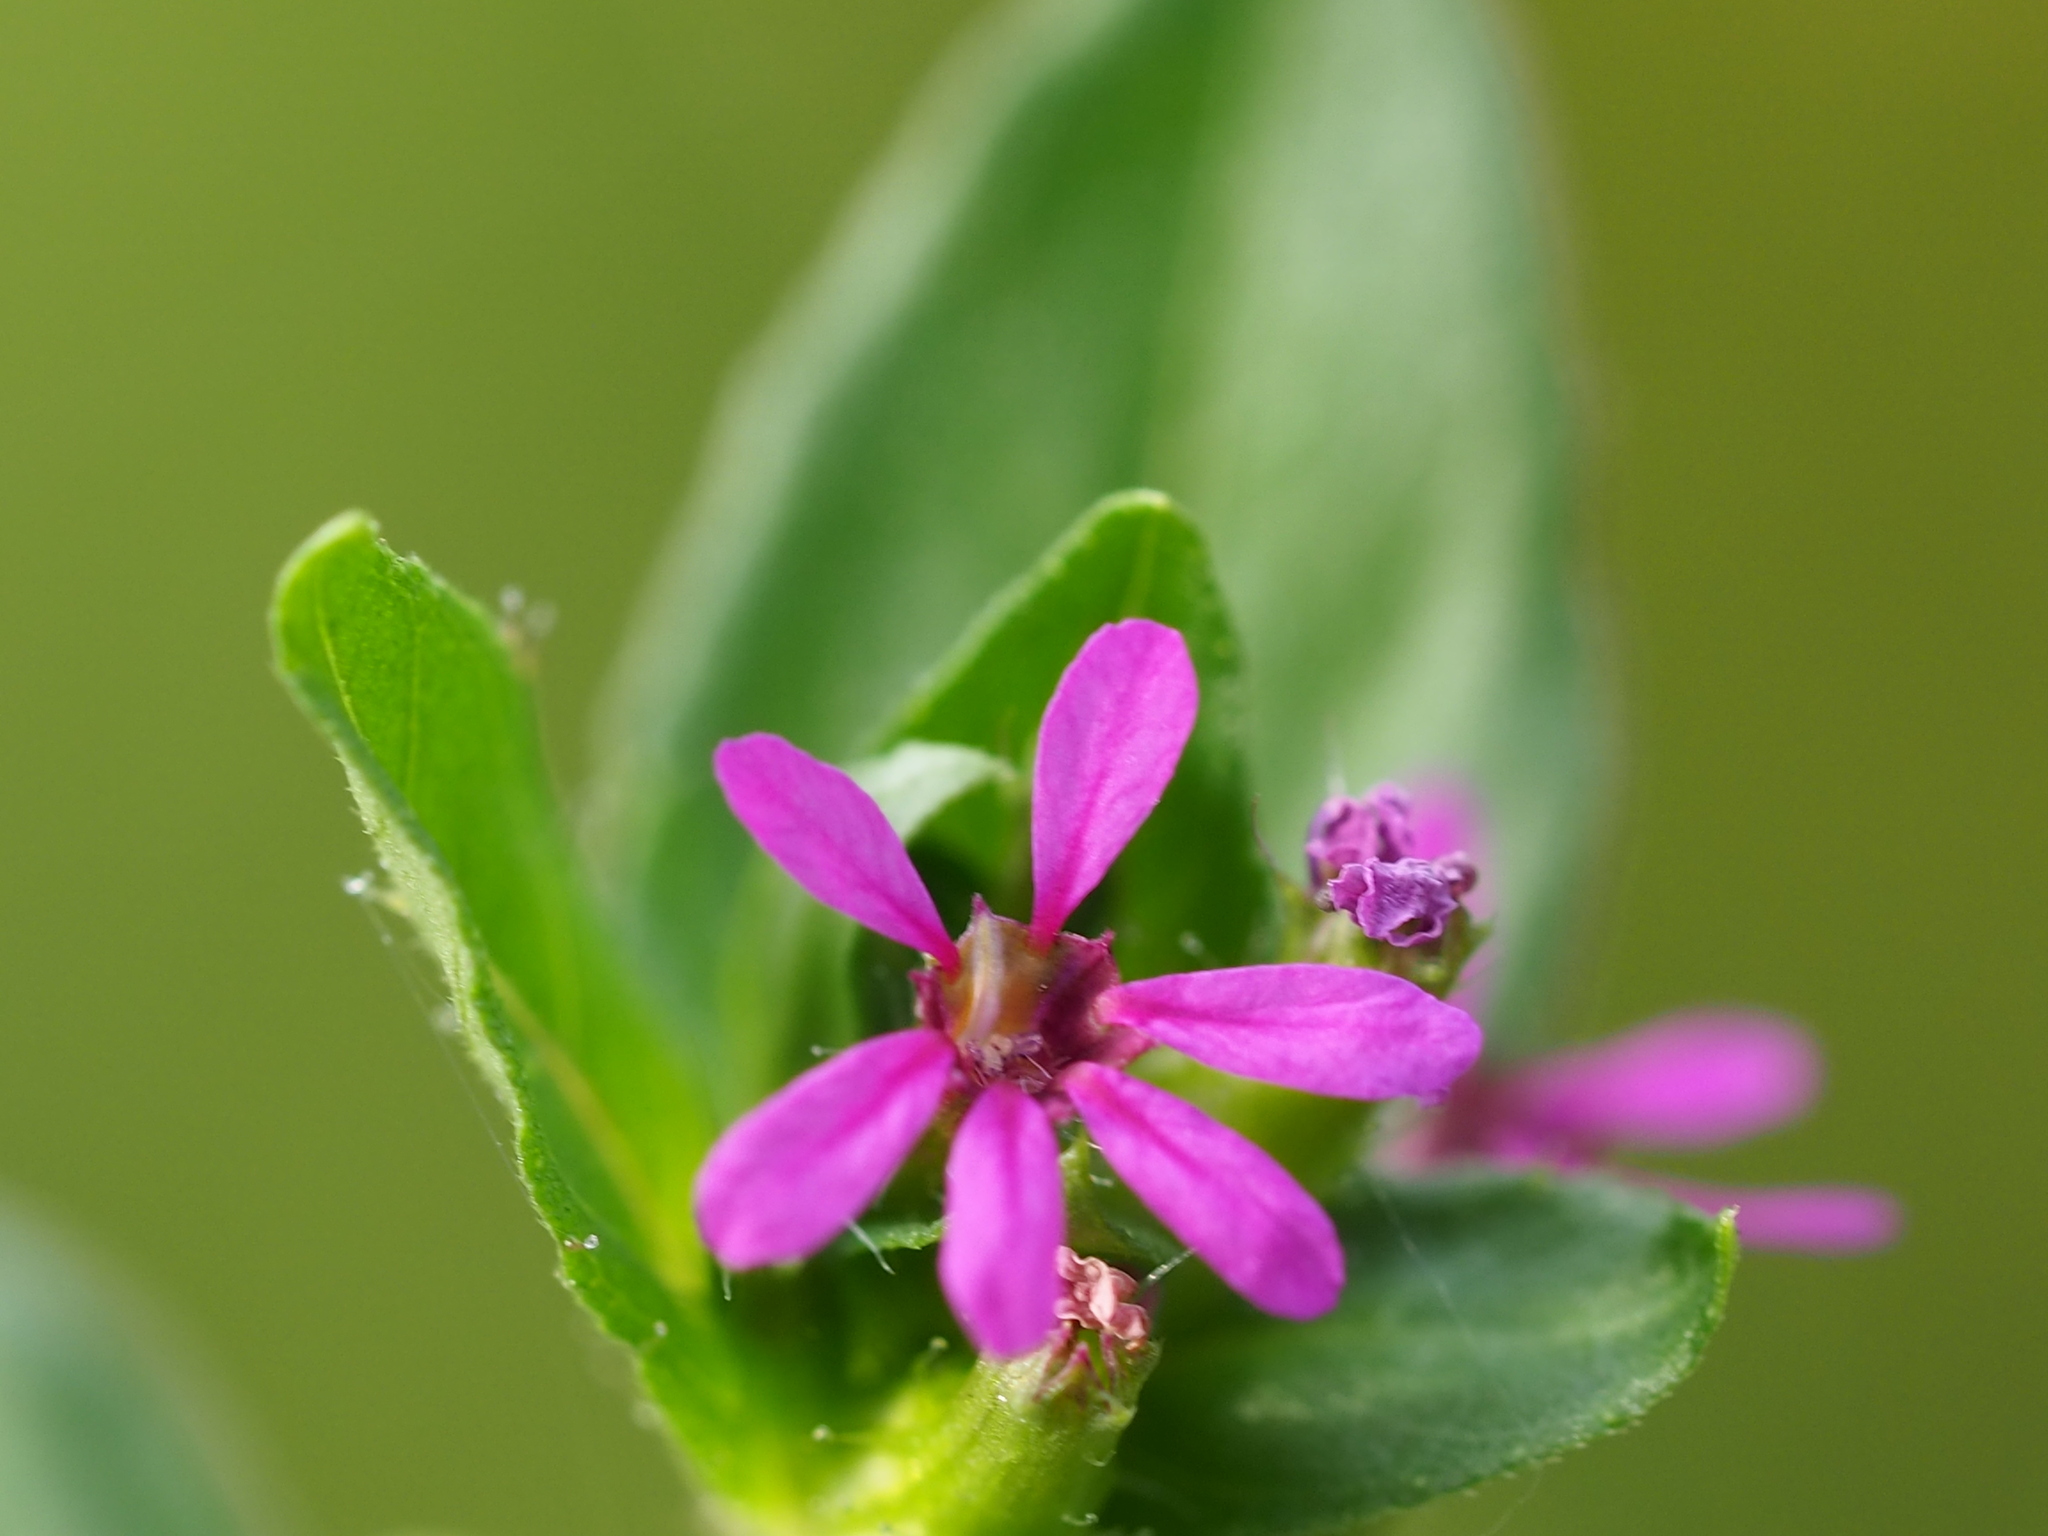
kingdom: Plantae
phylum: Tracheophyta
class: Magnoliopsida
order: Myrtales
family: Lythraceae
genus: Cuphea
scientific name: Cuphea carthagenensis
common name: Colombian waxweed
